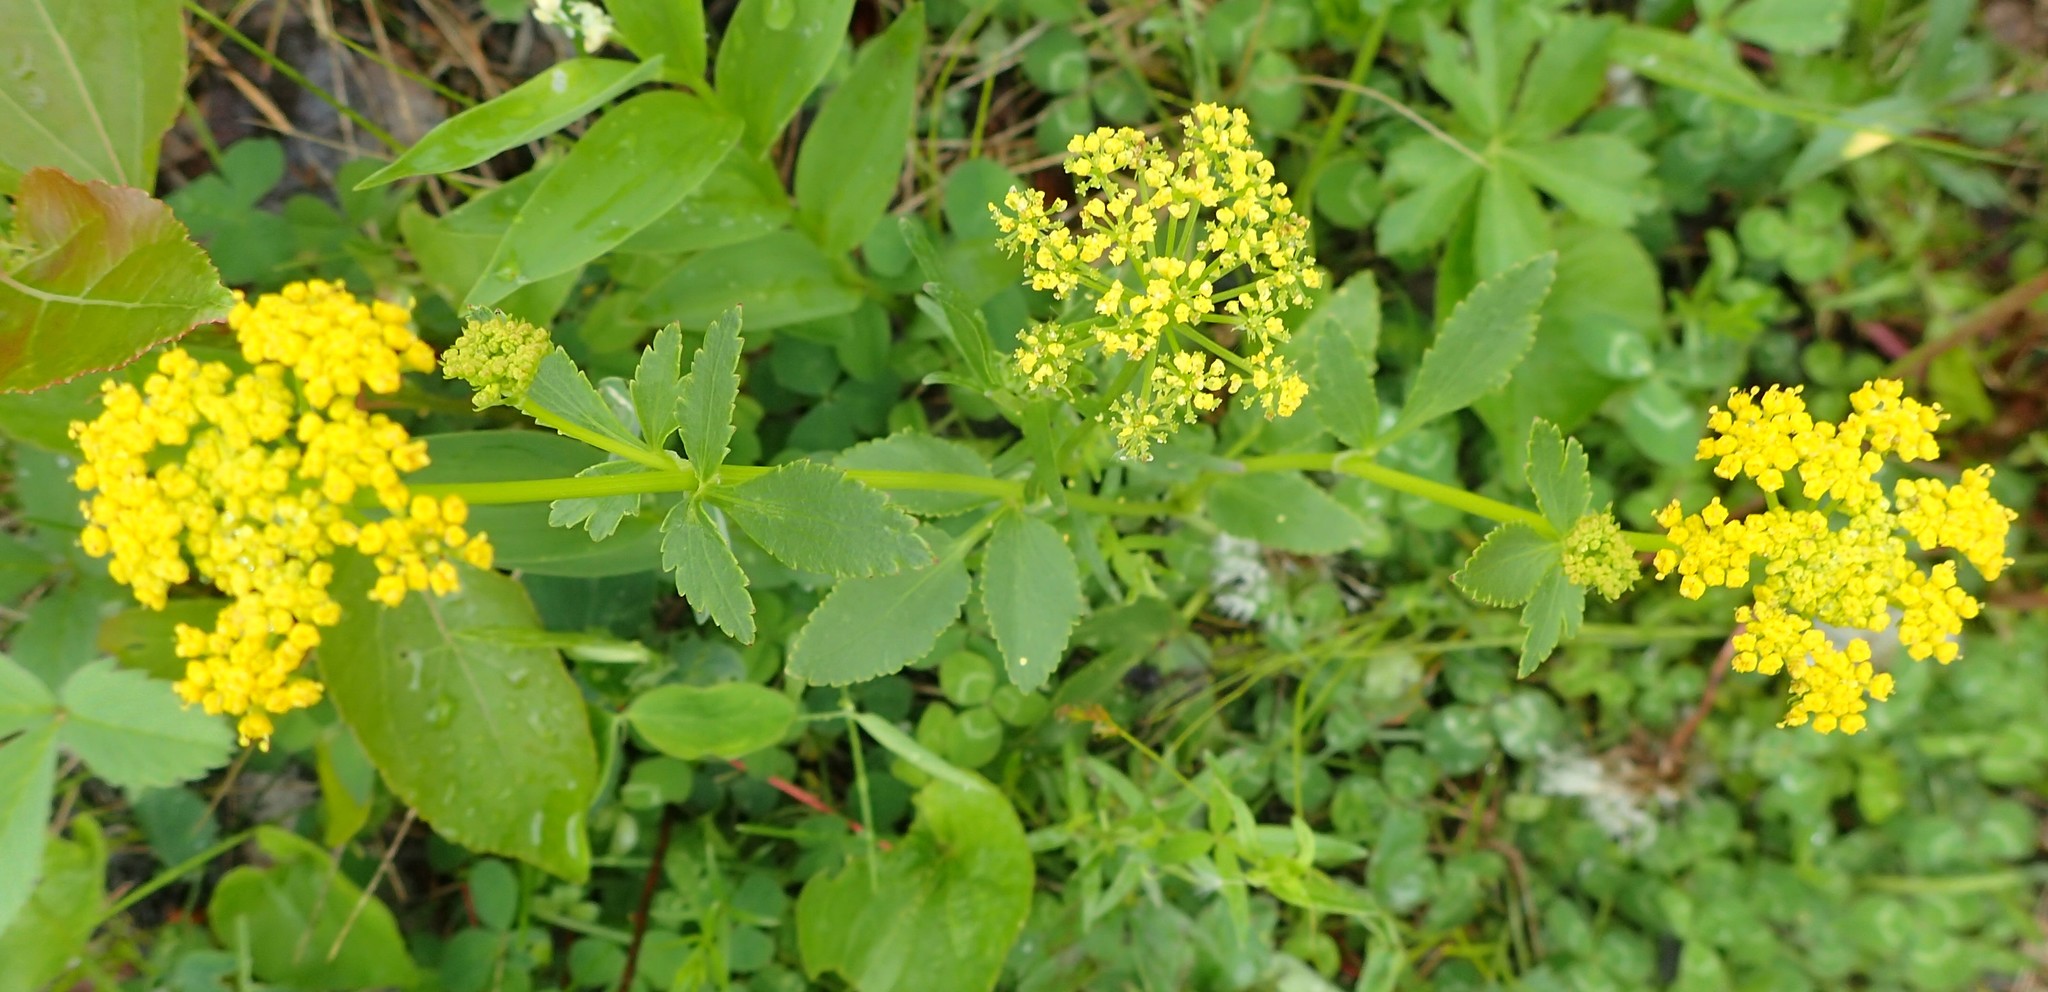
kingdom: Plantae
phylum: Tracheophyta
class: Magnoliopsida
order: Apiales
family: Apiaceae
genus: Zizia
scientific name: Zizia aptera
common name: Heart-leaved alexanders
